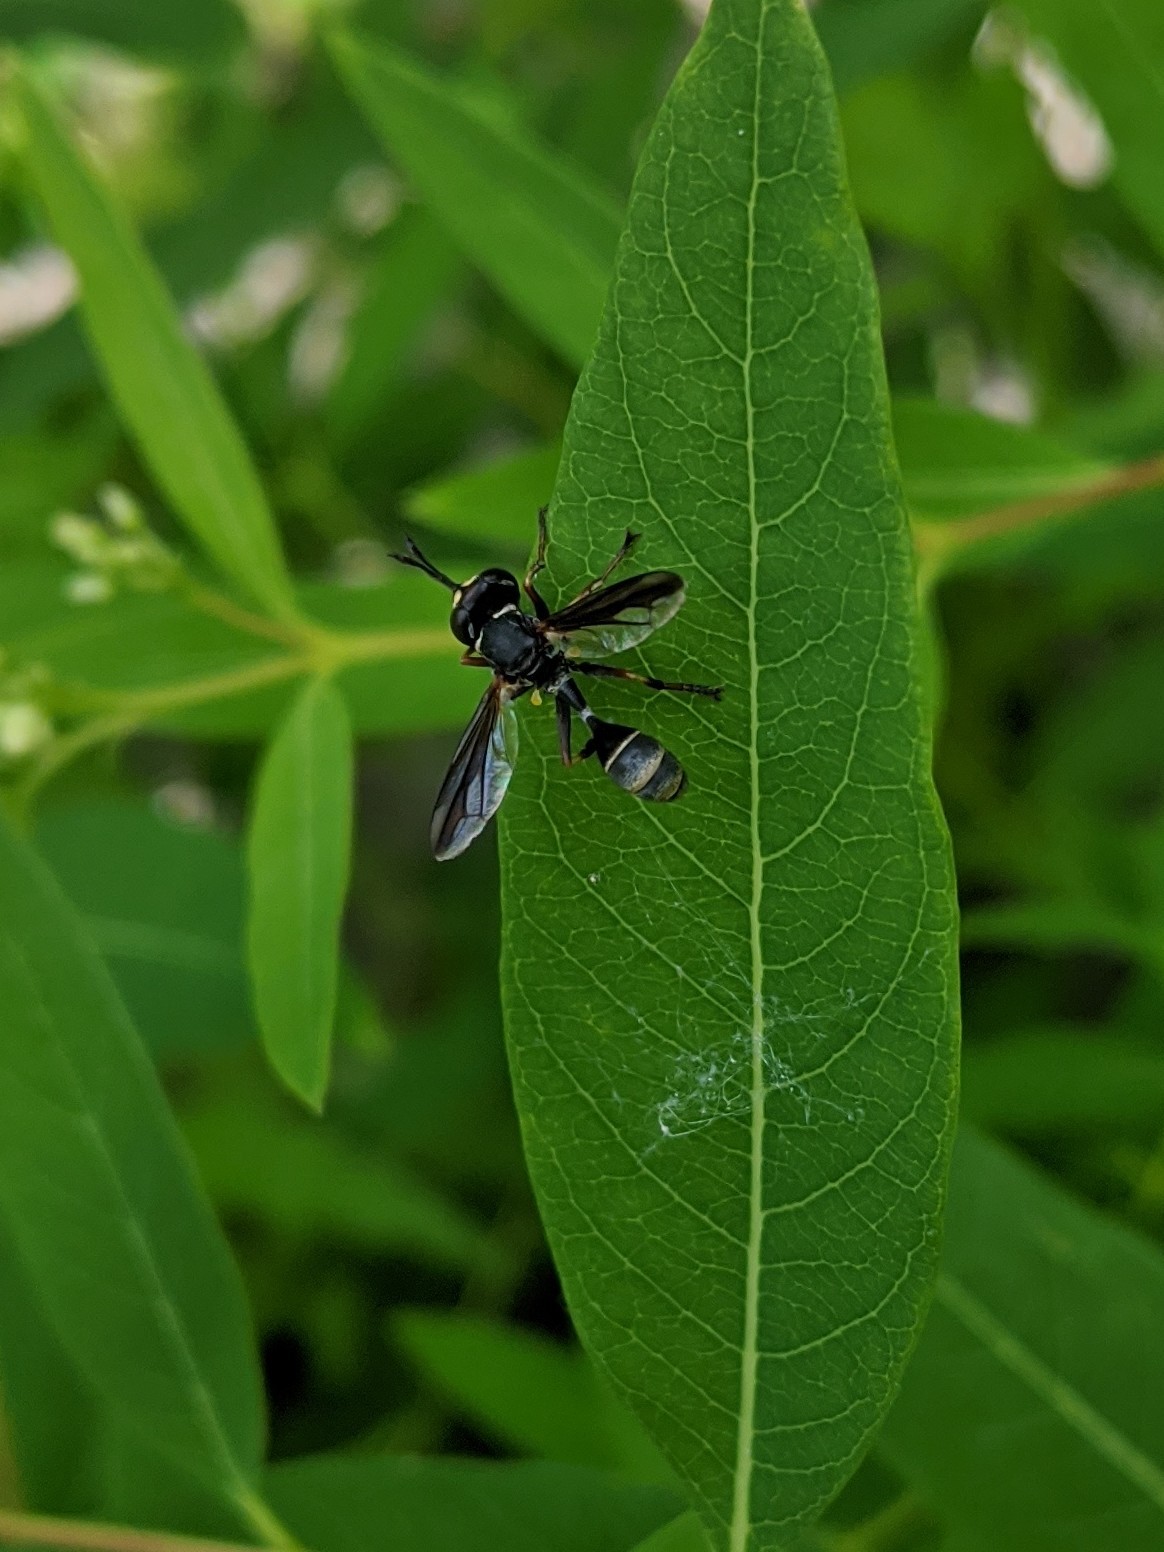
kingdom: Animalia
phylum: Arthropoda
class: Insecta
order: Diptera
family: Conopidae
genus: Physocephala
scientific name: Physocephala marginata
